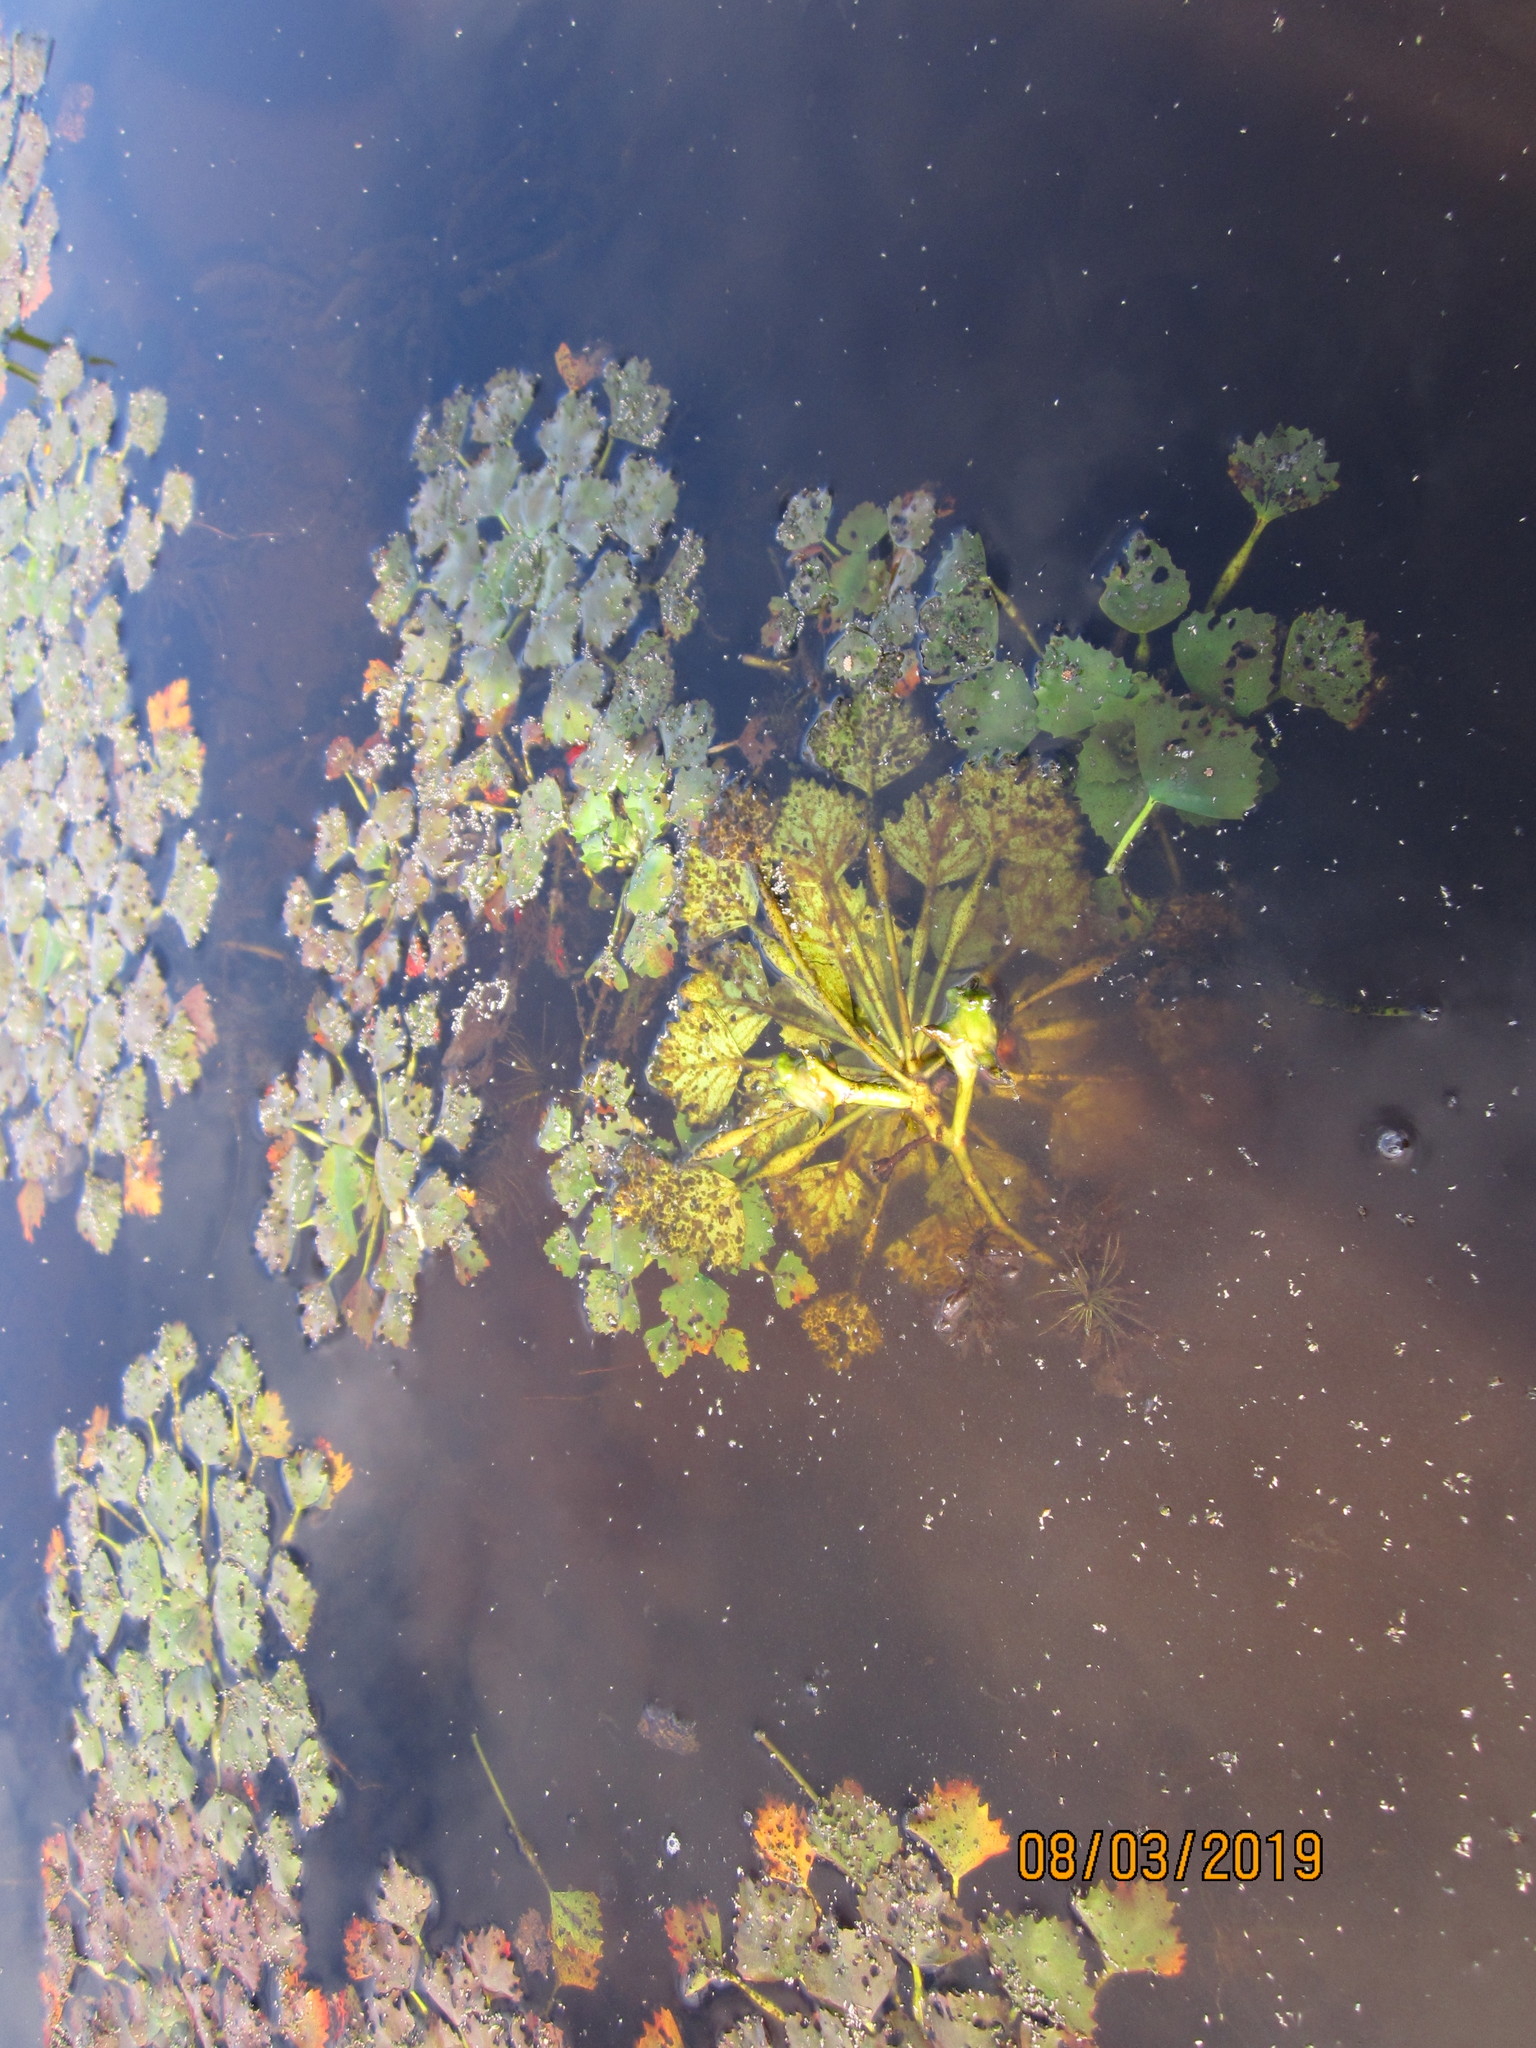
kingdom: Plantae
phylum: Tracheophyta
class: Magnoliopsida
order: Myrtales
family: Lythraceae
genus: Trapa
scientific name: Trapa natans
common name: Water chestnut
